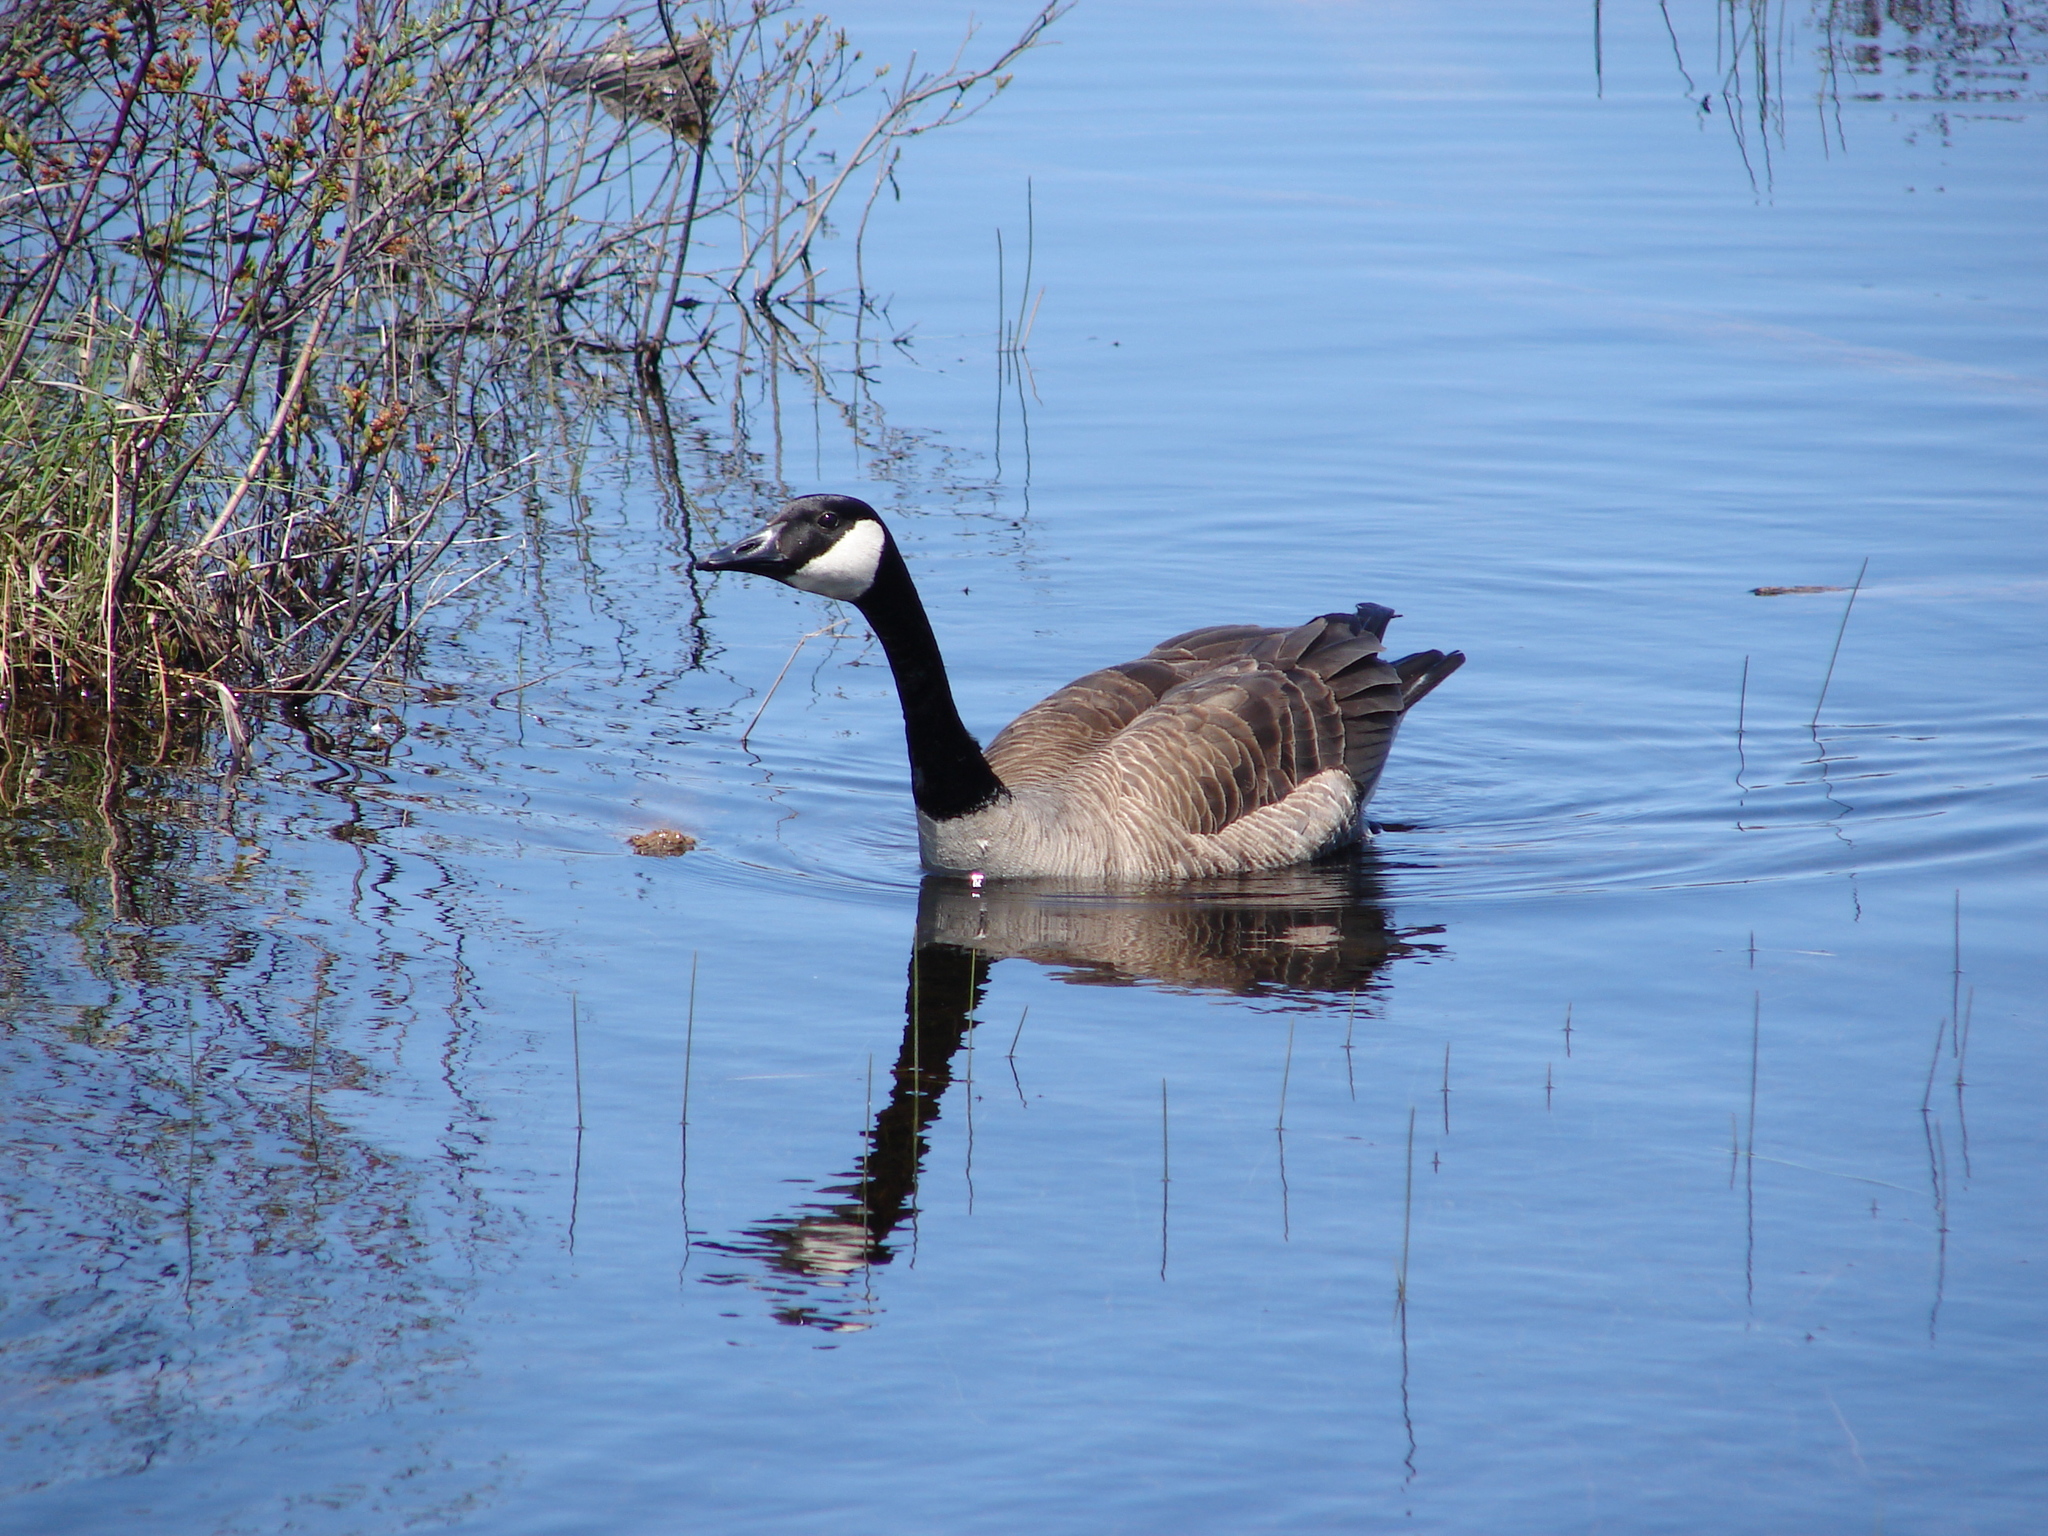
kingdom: Animalia
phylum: Chordata
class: Aves
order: Anseriformes
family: Anatidae
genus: Branta
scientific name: Branta canadensis
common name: Canada goose
